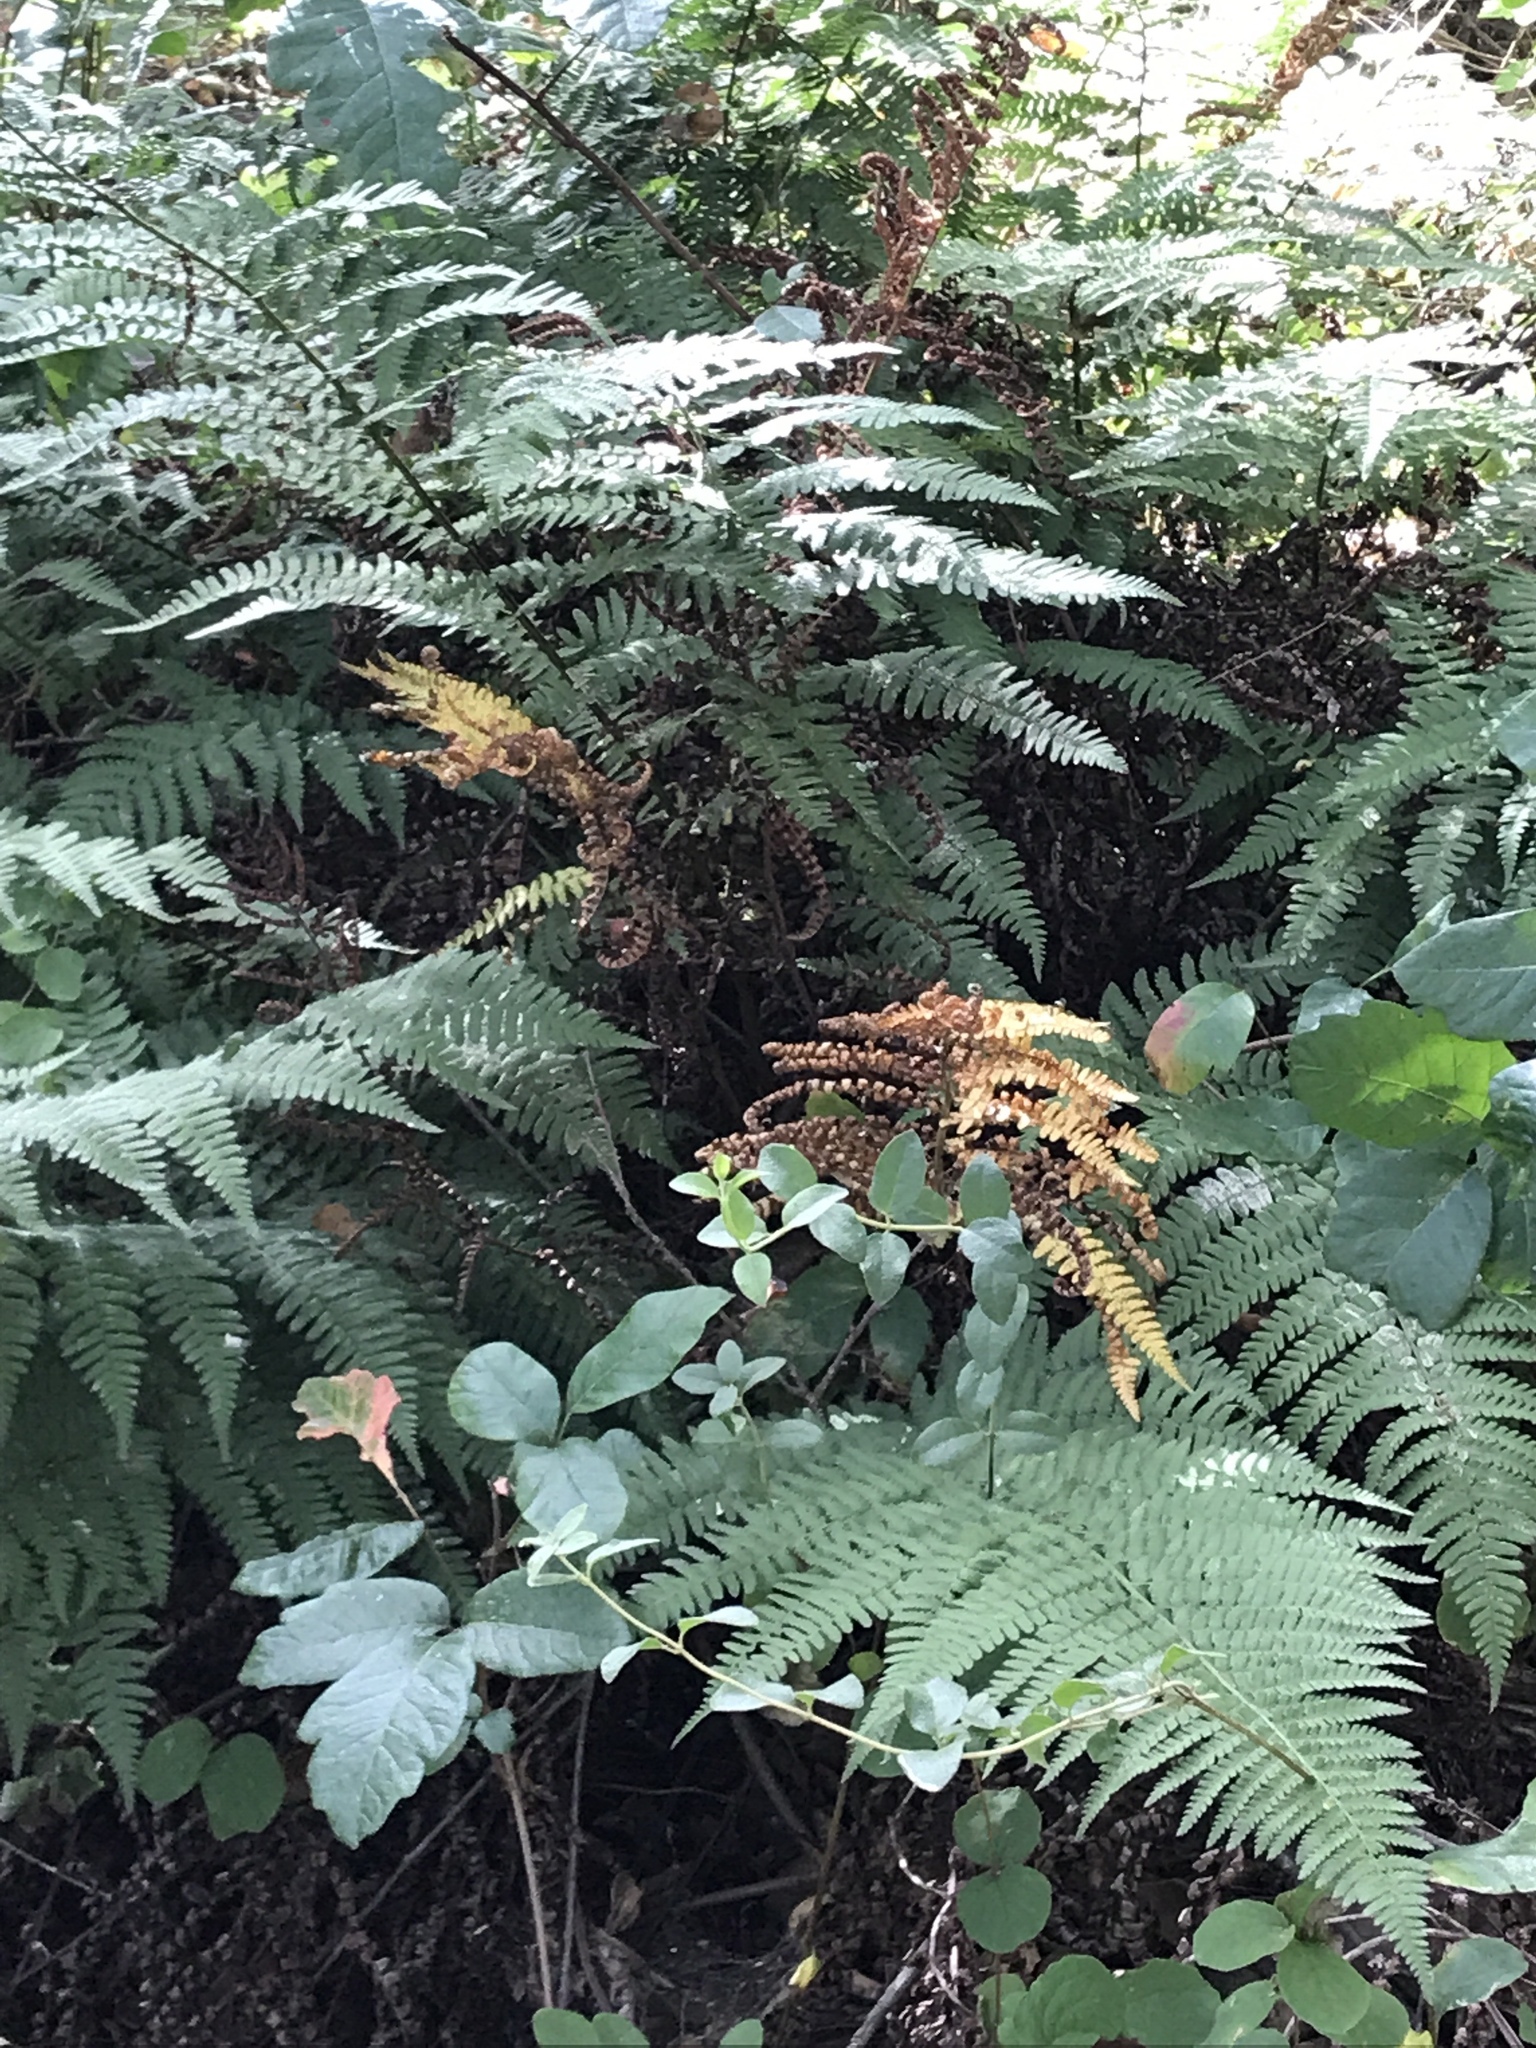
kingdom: Plantae
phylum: Tracheophyta
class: Polypodiopsida
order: Polypodiales
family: Dryopteridaceae
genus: Dryopteris
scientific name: Dryopteris arguta
